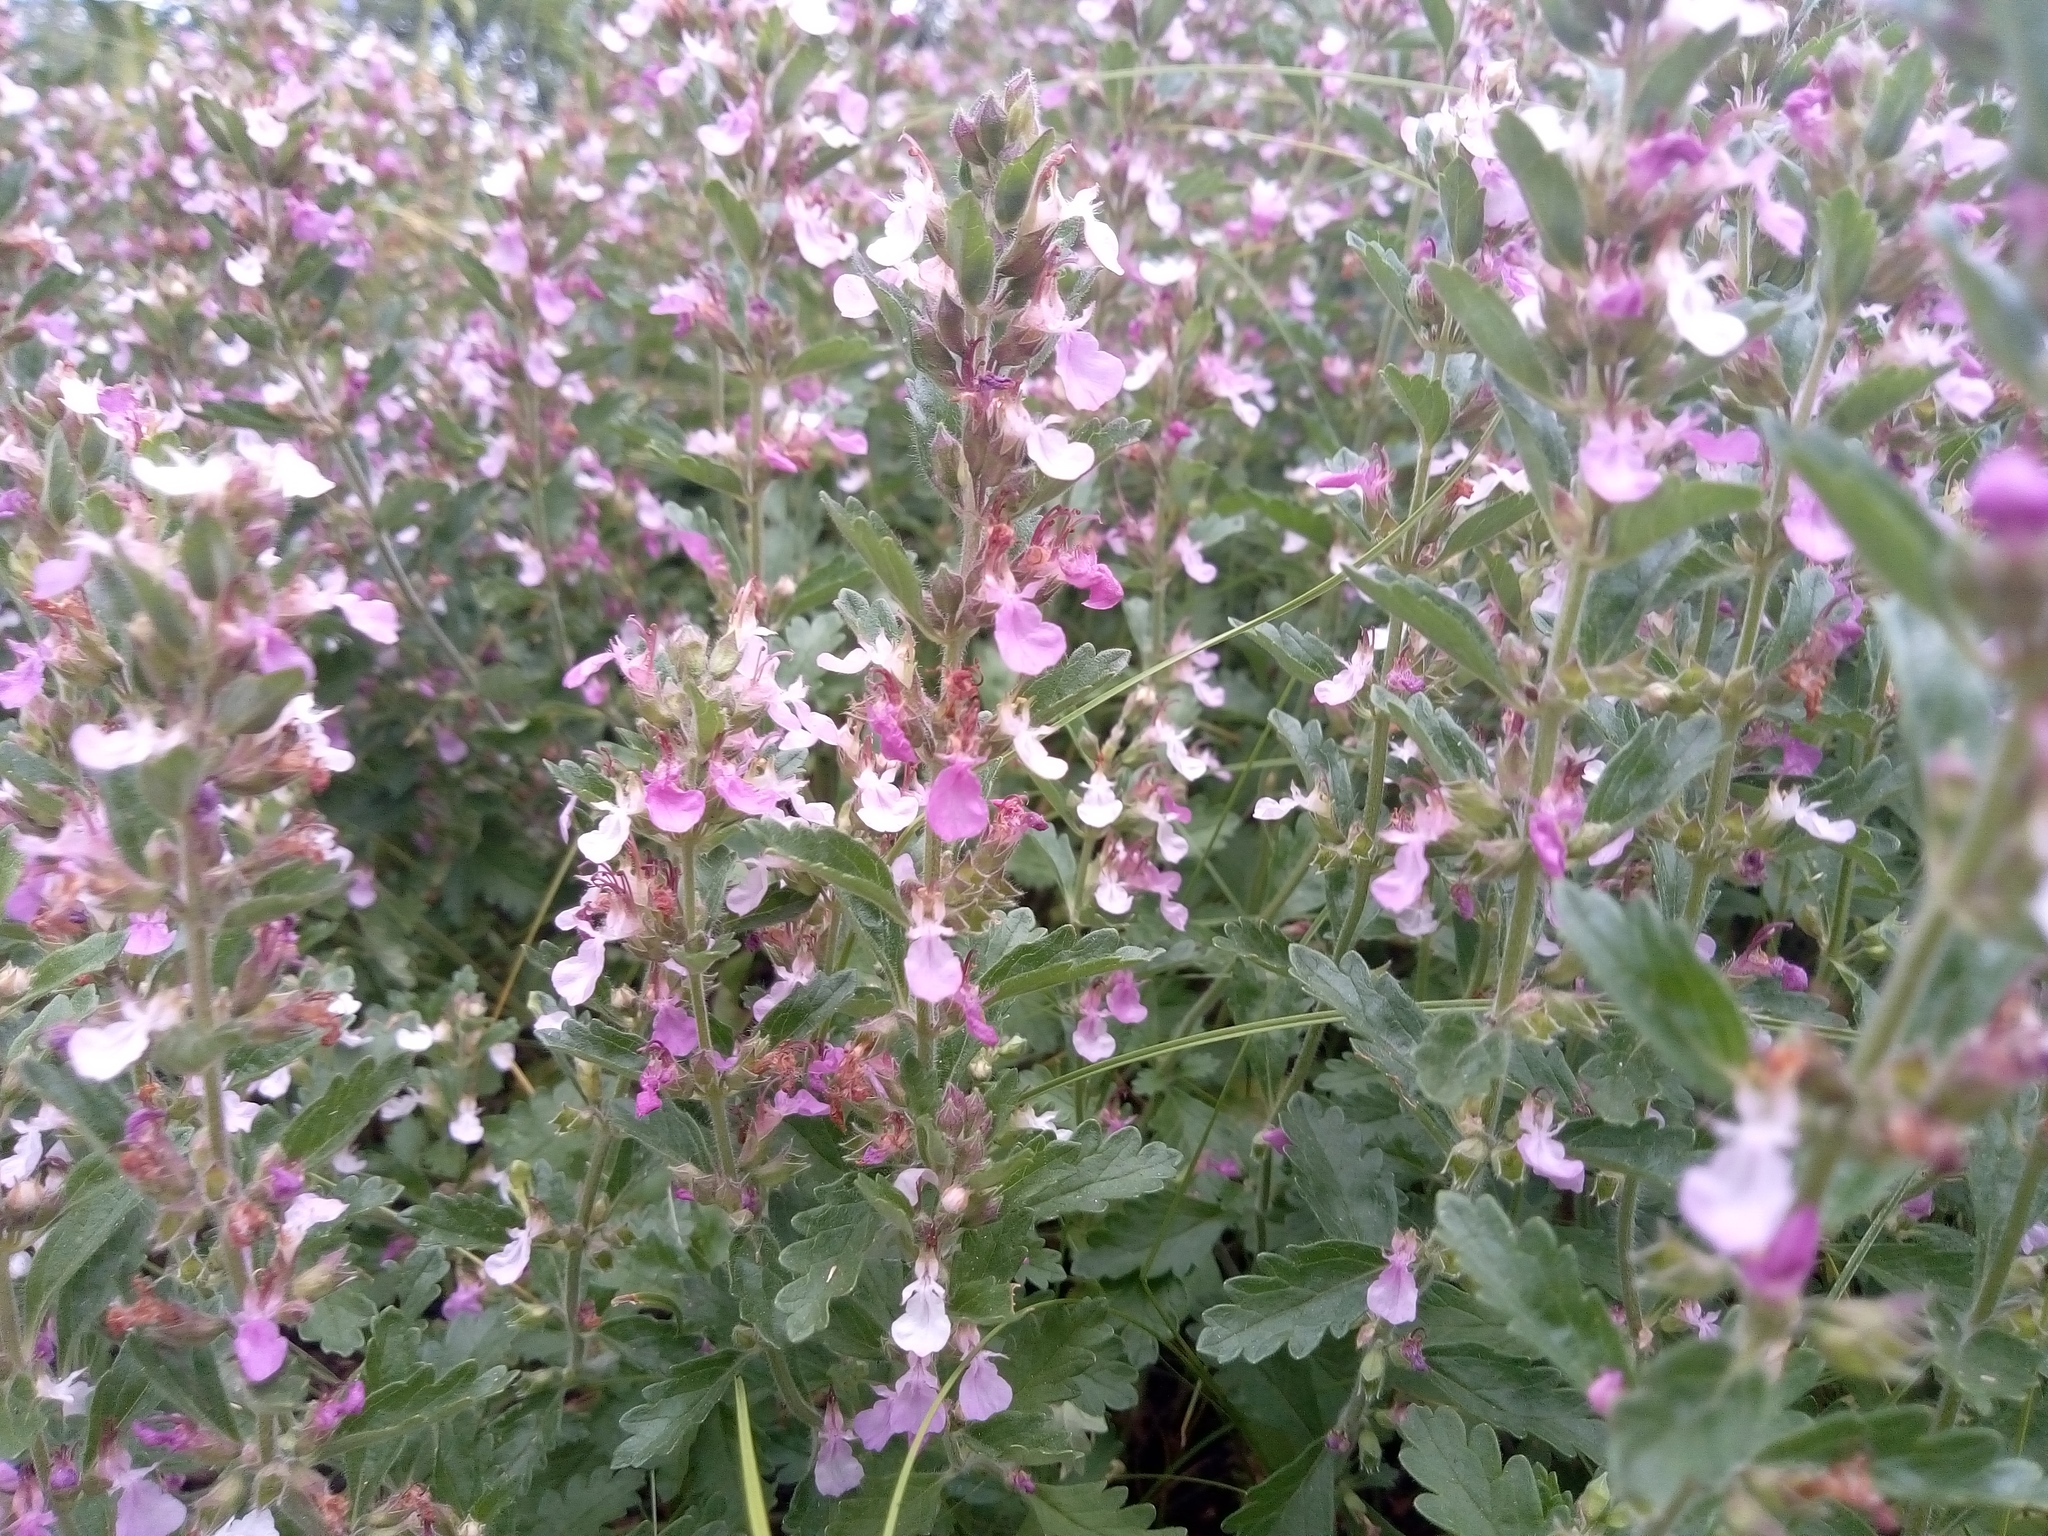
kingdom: Plantae
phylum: Tracheophyta
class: Magnoliopsida
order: Lamiales
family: Lamiaceae
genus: Teucrium
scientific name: Teucrium chamaedrys
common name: Wall germander
